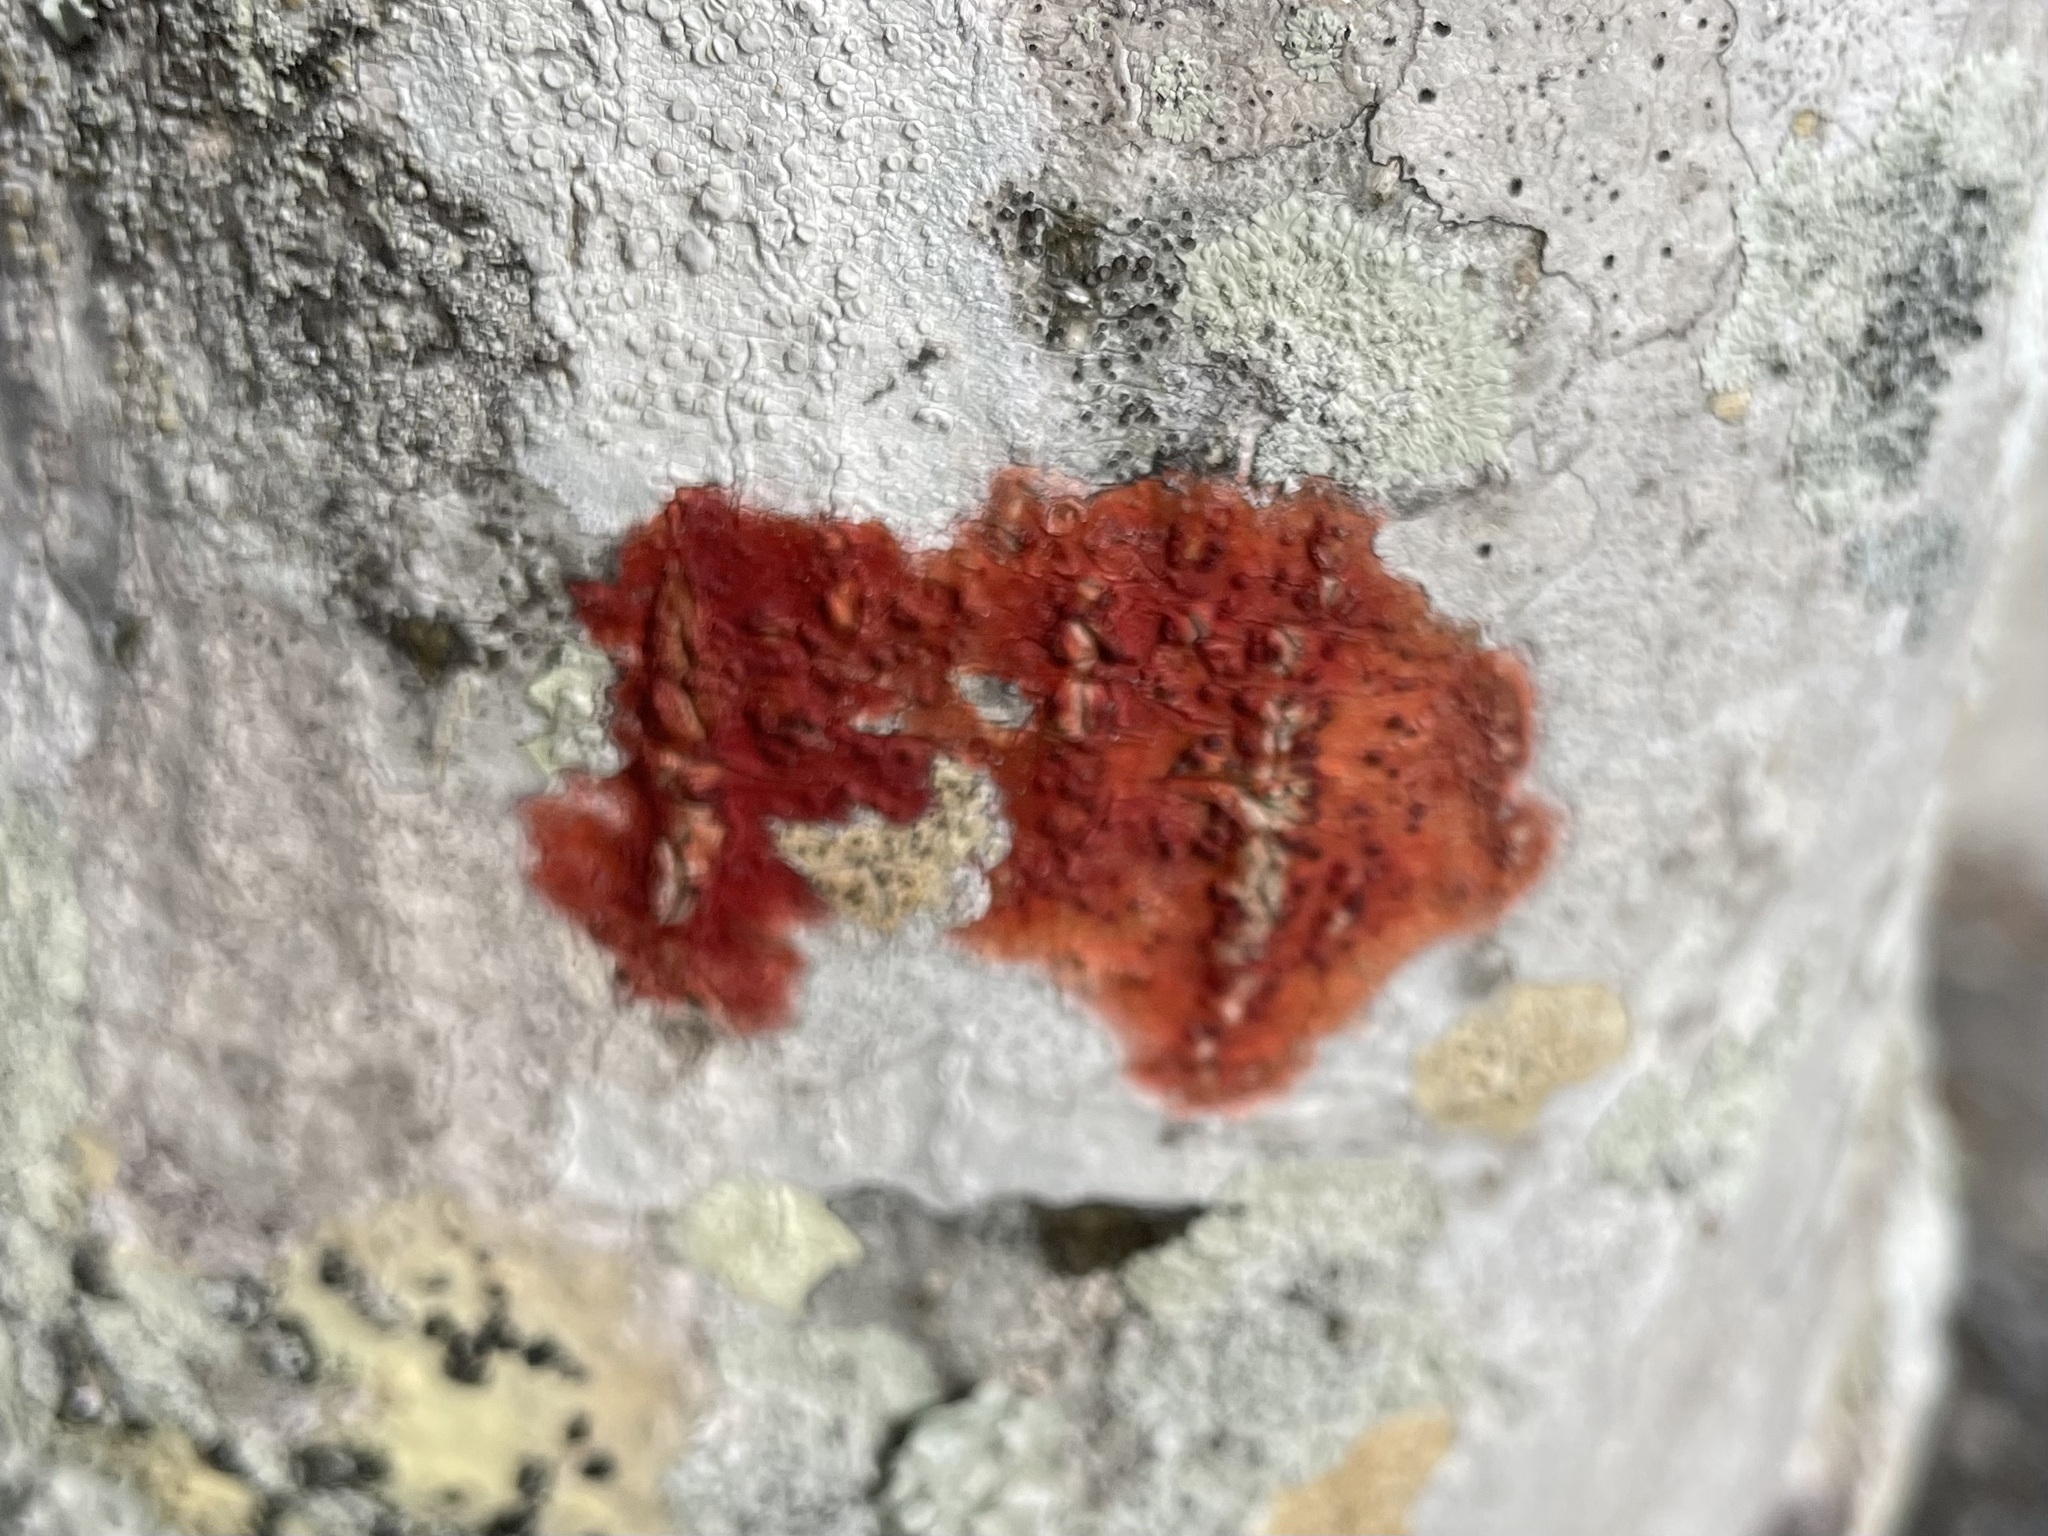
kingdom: Fungi
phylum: Ascomycota
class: Eurotiomycetes
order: Pyrenulales
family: Pyrenulaceae
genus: Pyrenula
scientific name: Pyrenula cruenta
